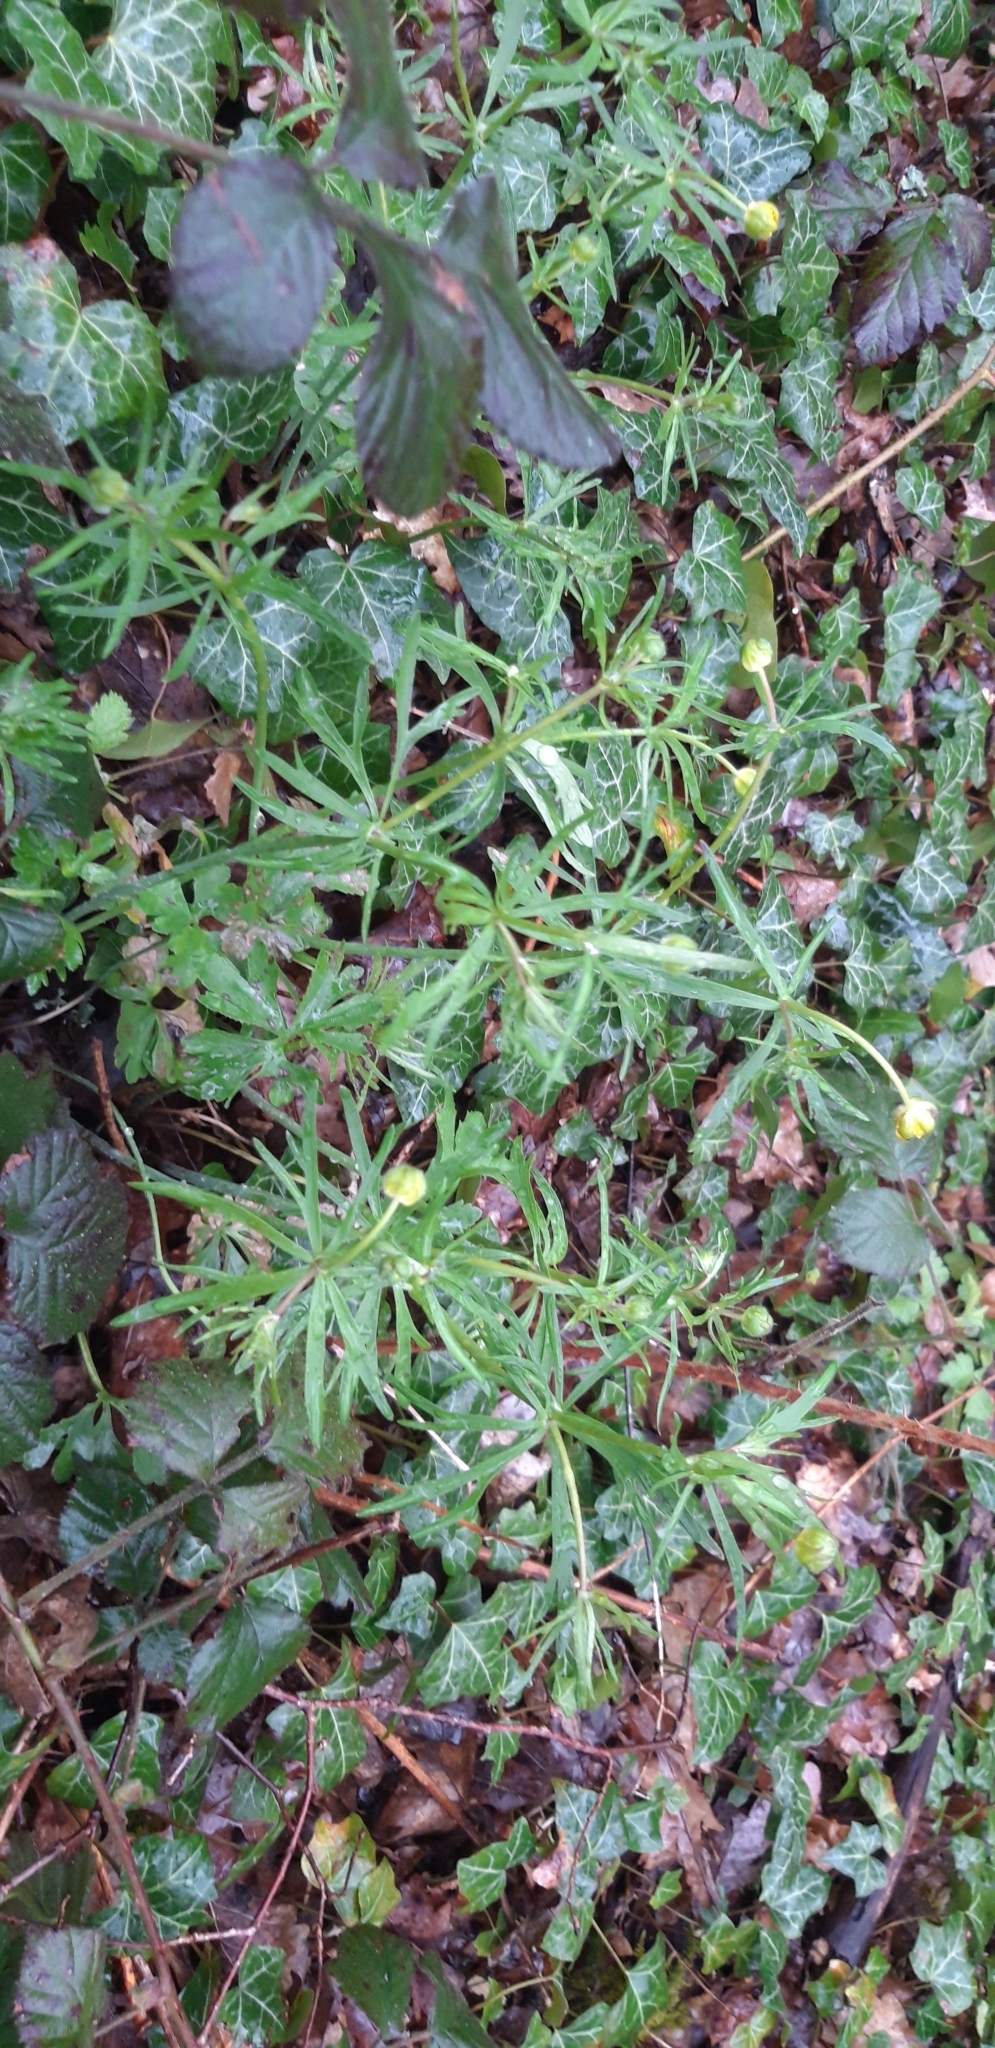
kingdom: Plantae
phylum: Tracheophyta
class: Magnoliopsida
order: Ranunculales
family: Ranunculaceae
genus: Ranunculus
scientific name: Ranunculus auricomus
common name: Goldilocks buttercup
